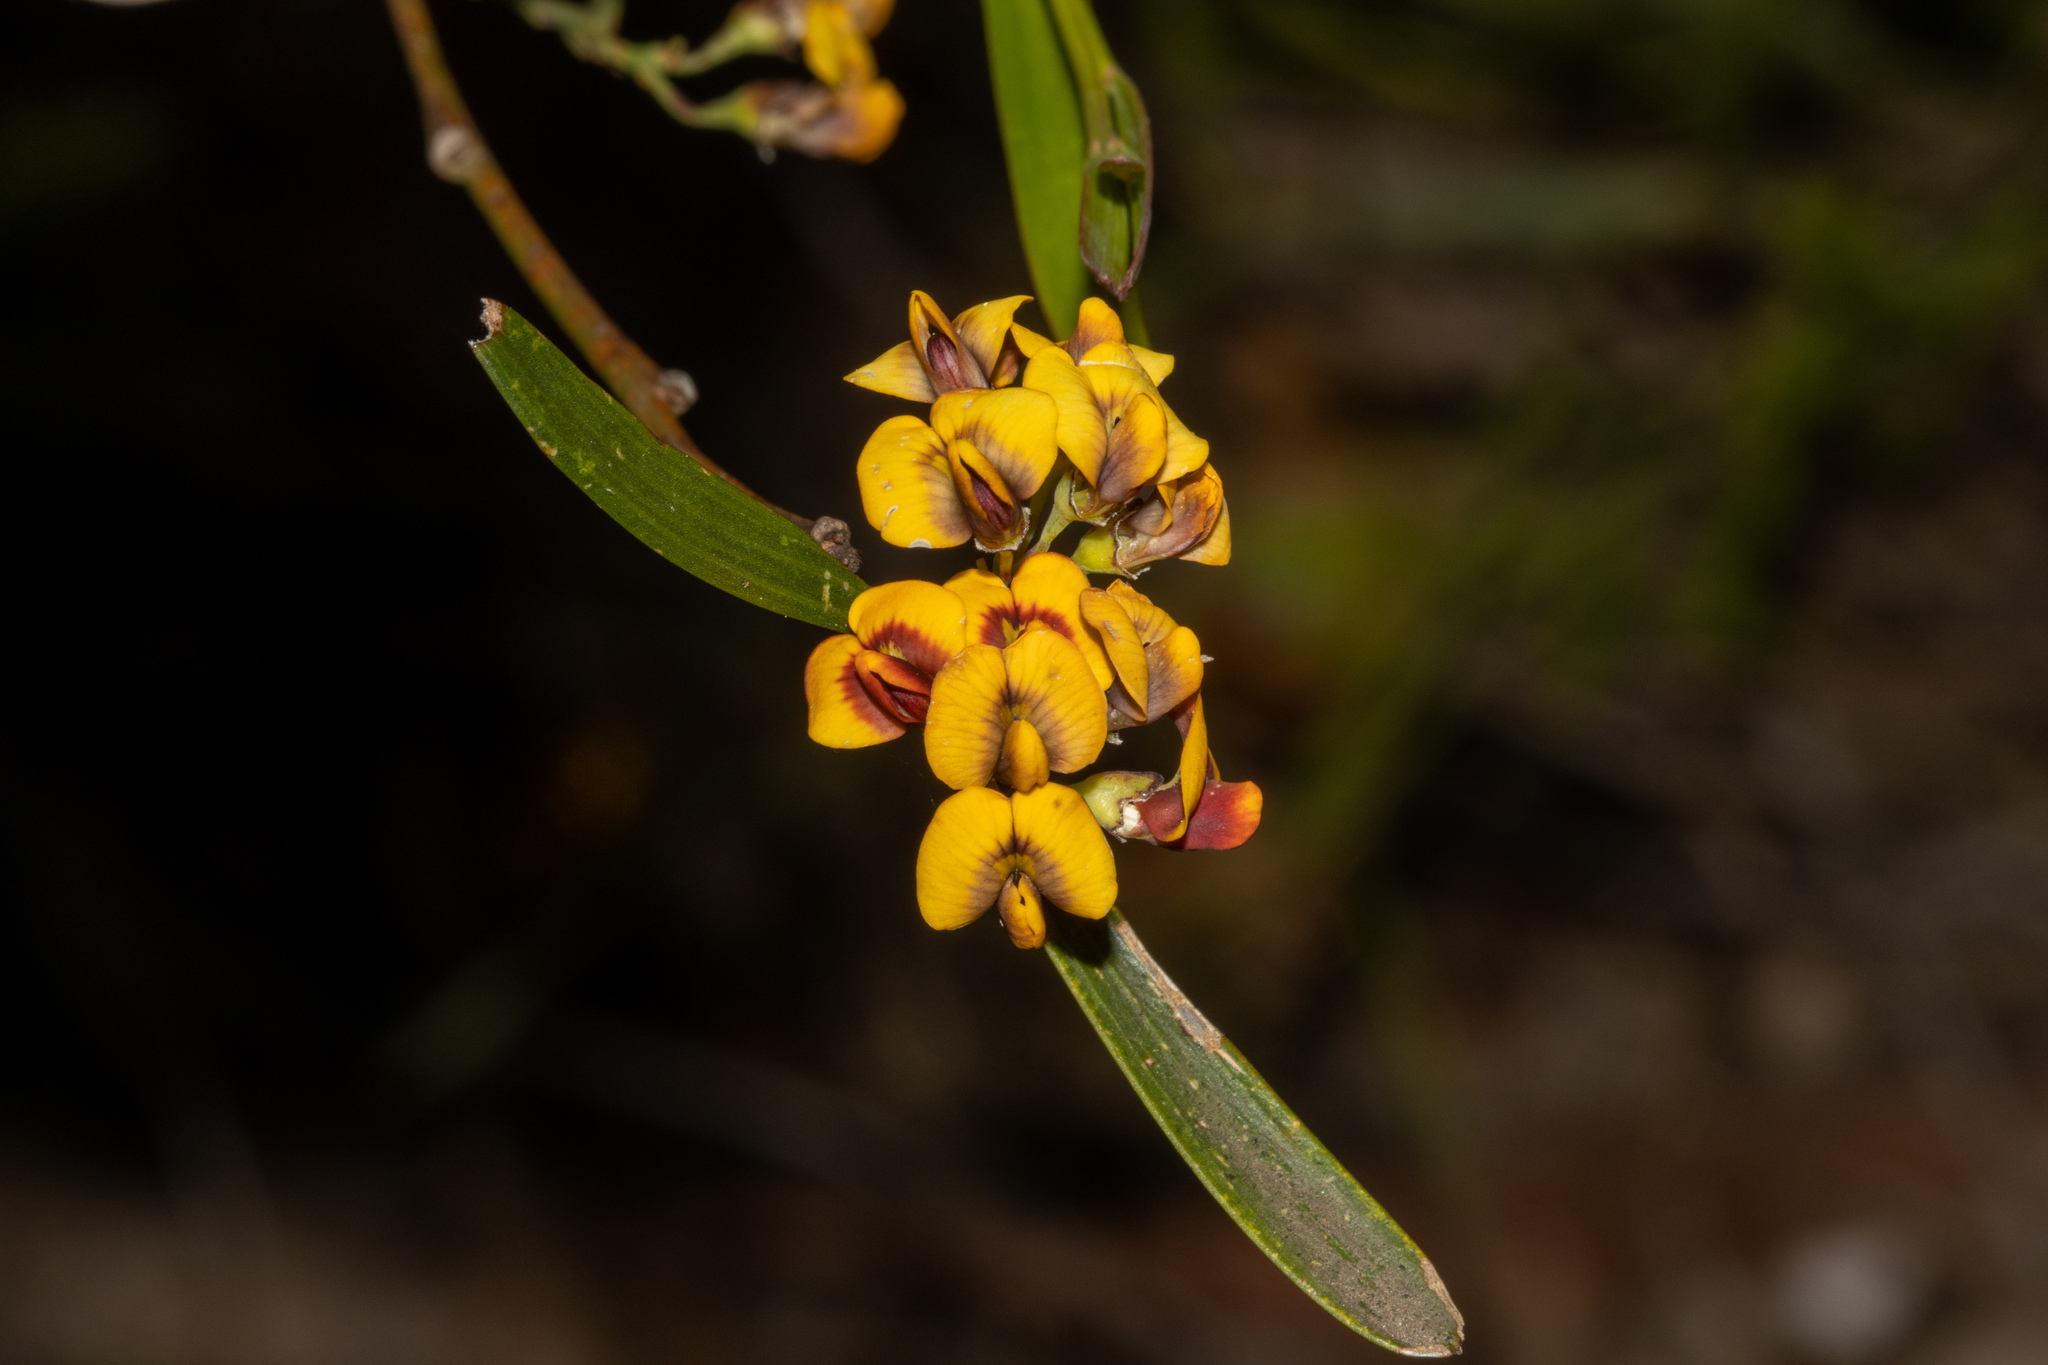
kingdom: Plantae
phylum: Tracheophyta
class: Magnoliopsida
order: Fabales
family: Fabaceae
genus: Daviesia
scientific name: Daviesia leptophylla
